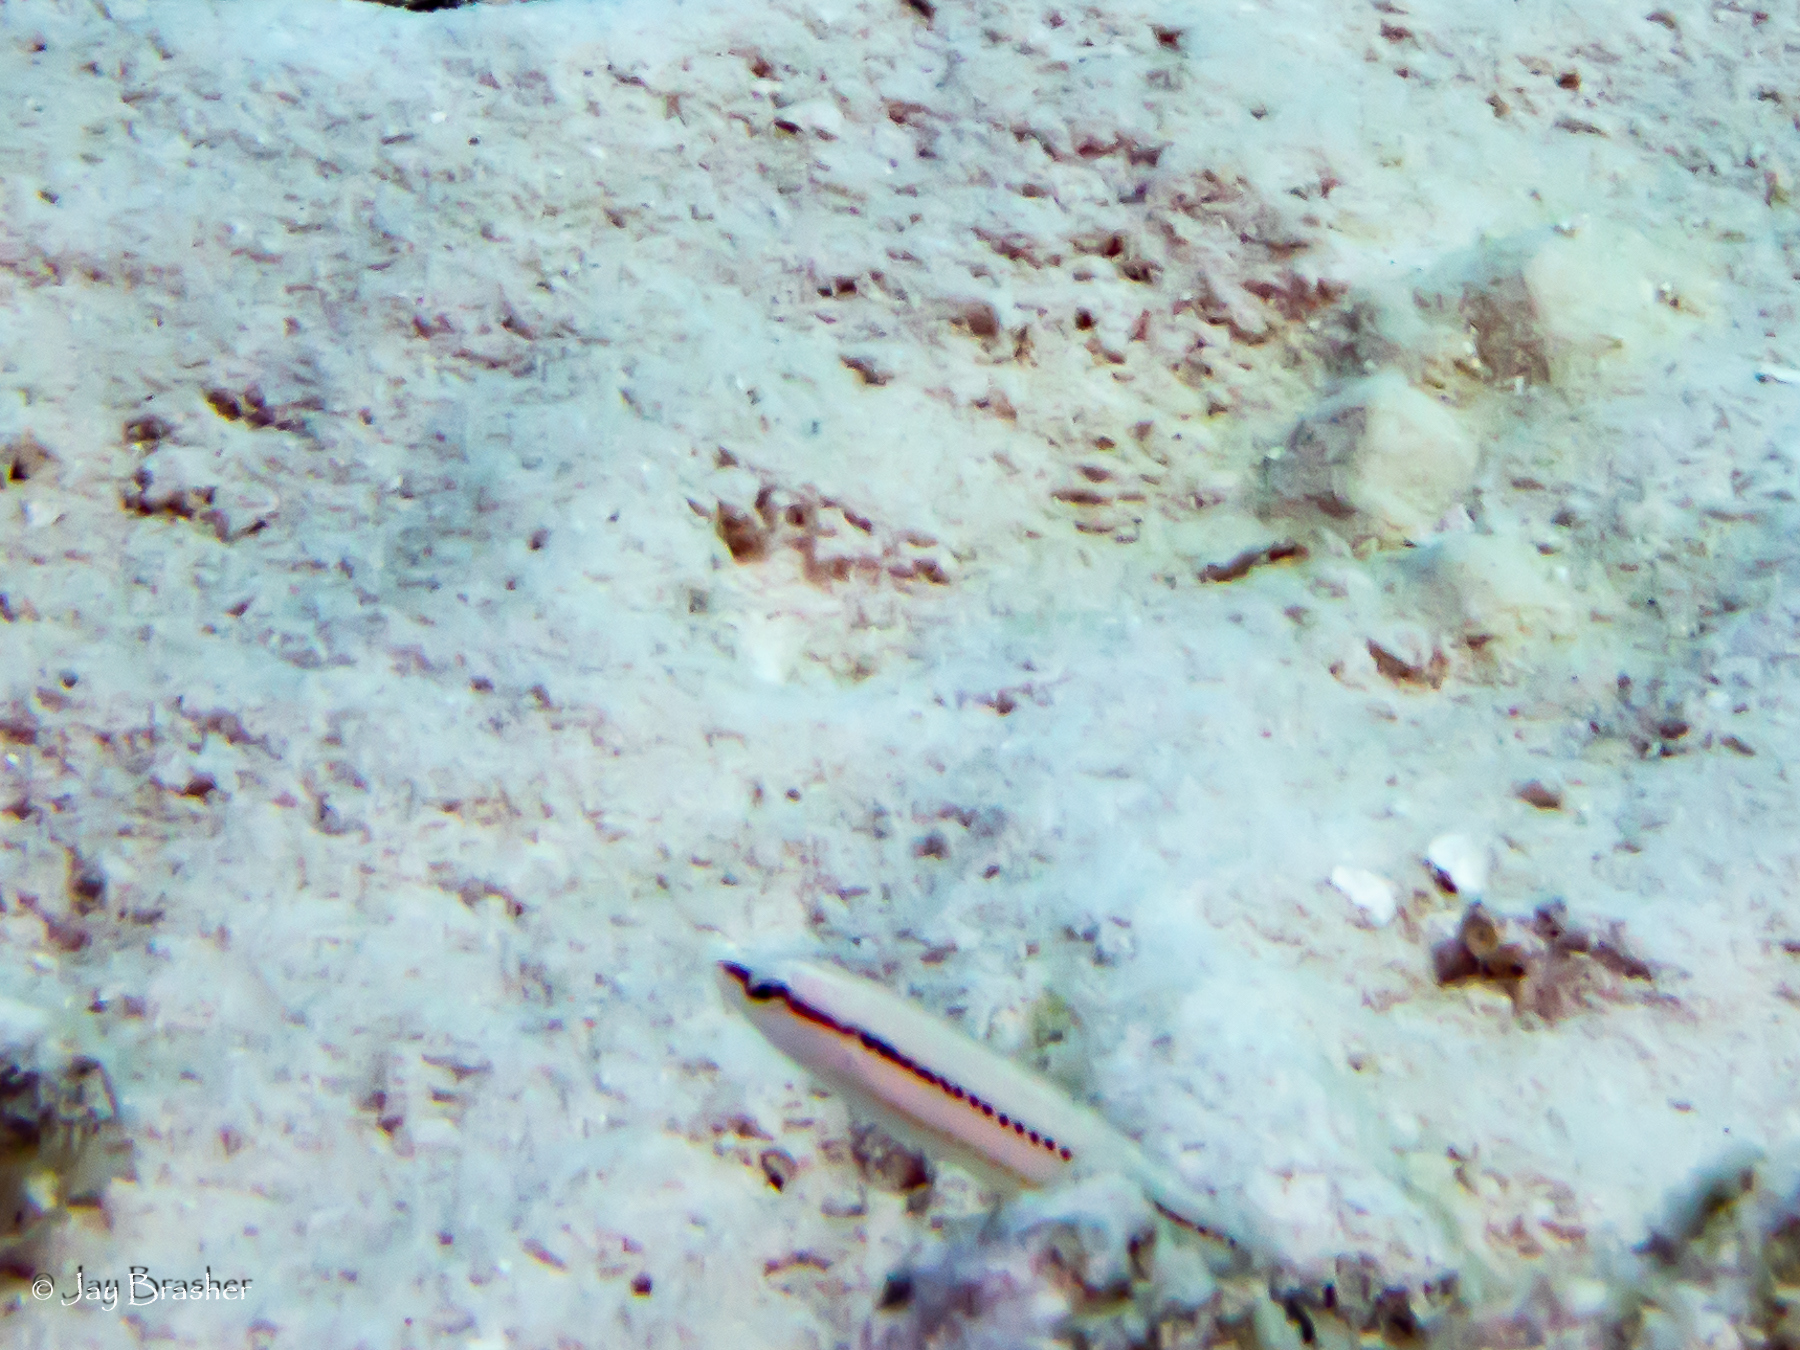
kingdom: Animalia
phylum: Chordata
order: Perciformes
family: Labridae
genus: Halichoeres
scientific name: Halichoeres bivittatus
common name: Slippery dick
